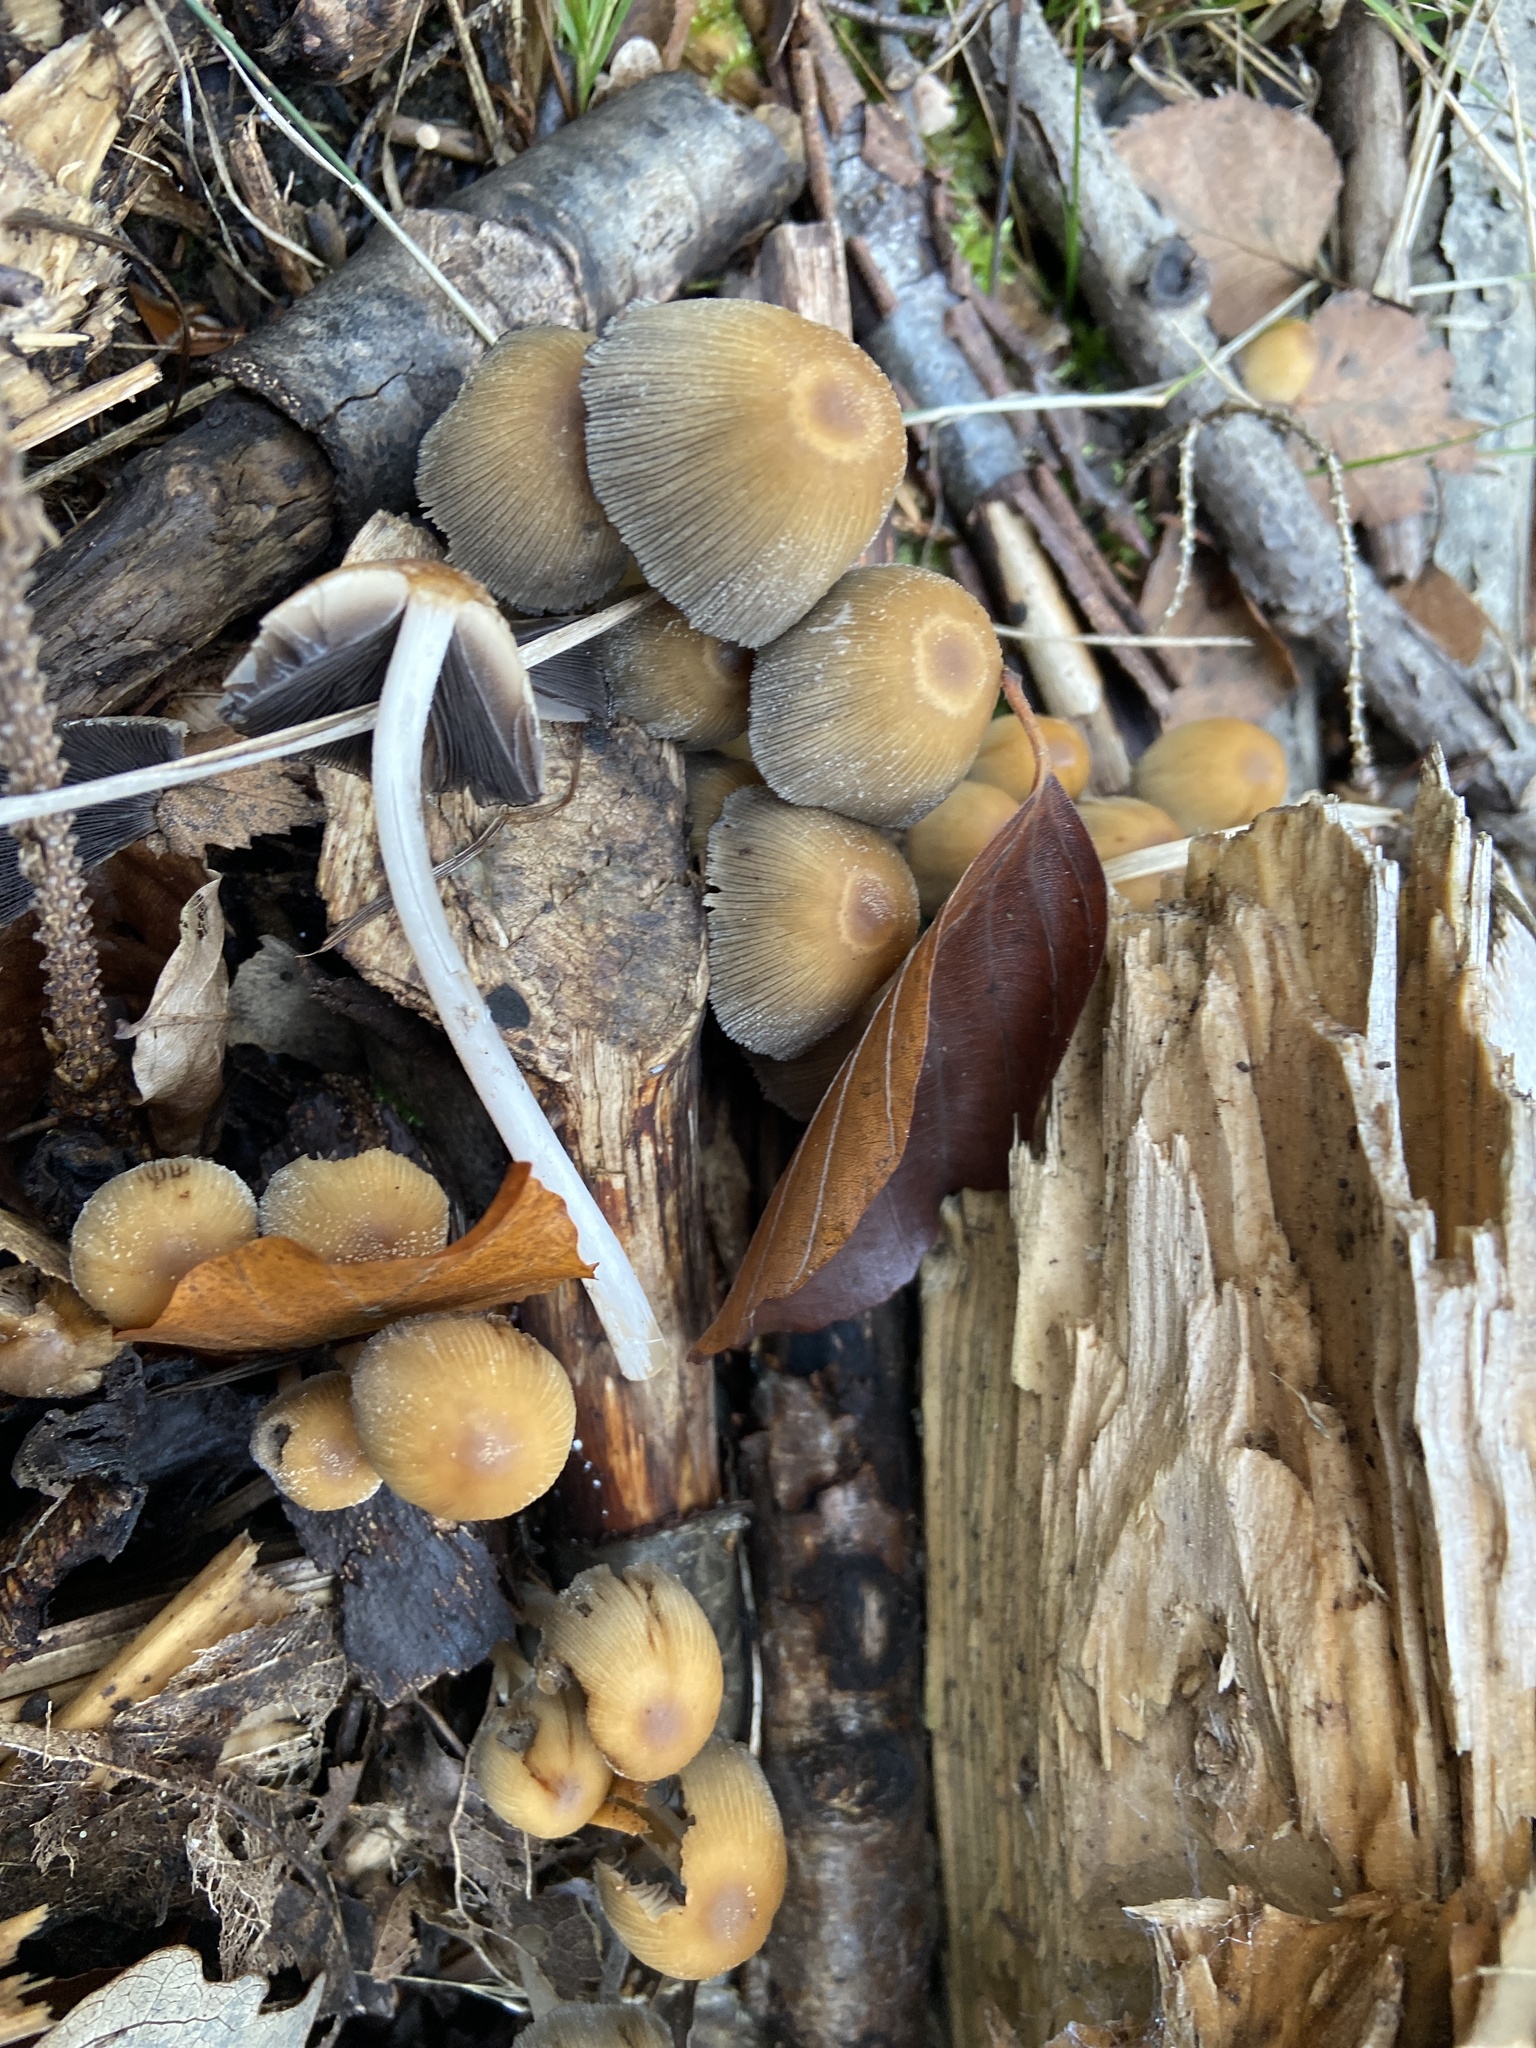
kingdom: Fungi
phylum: Basidiomycota
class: Agaricomycetes
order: Agaricales
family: Psathyrellaceae
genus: Coprinellus
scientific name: Coprinellus micaceus
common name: Glistening ink-cap
